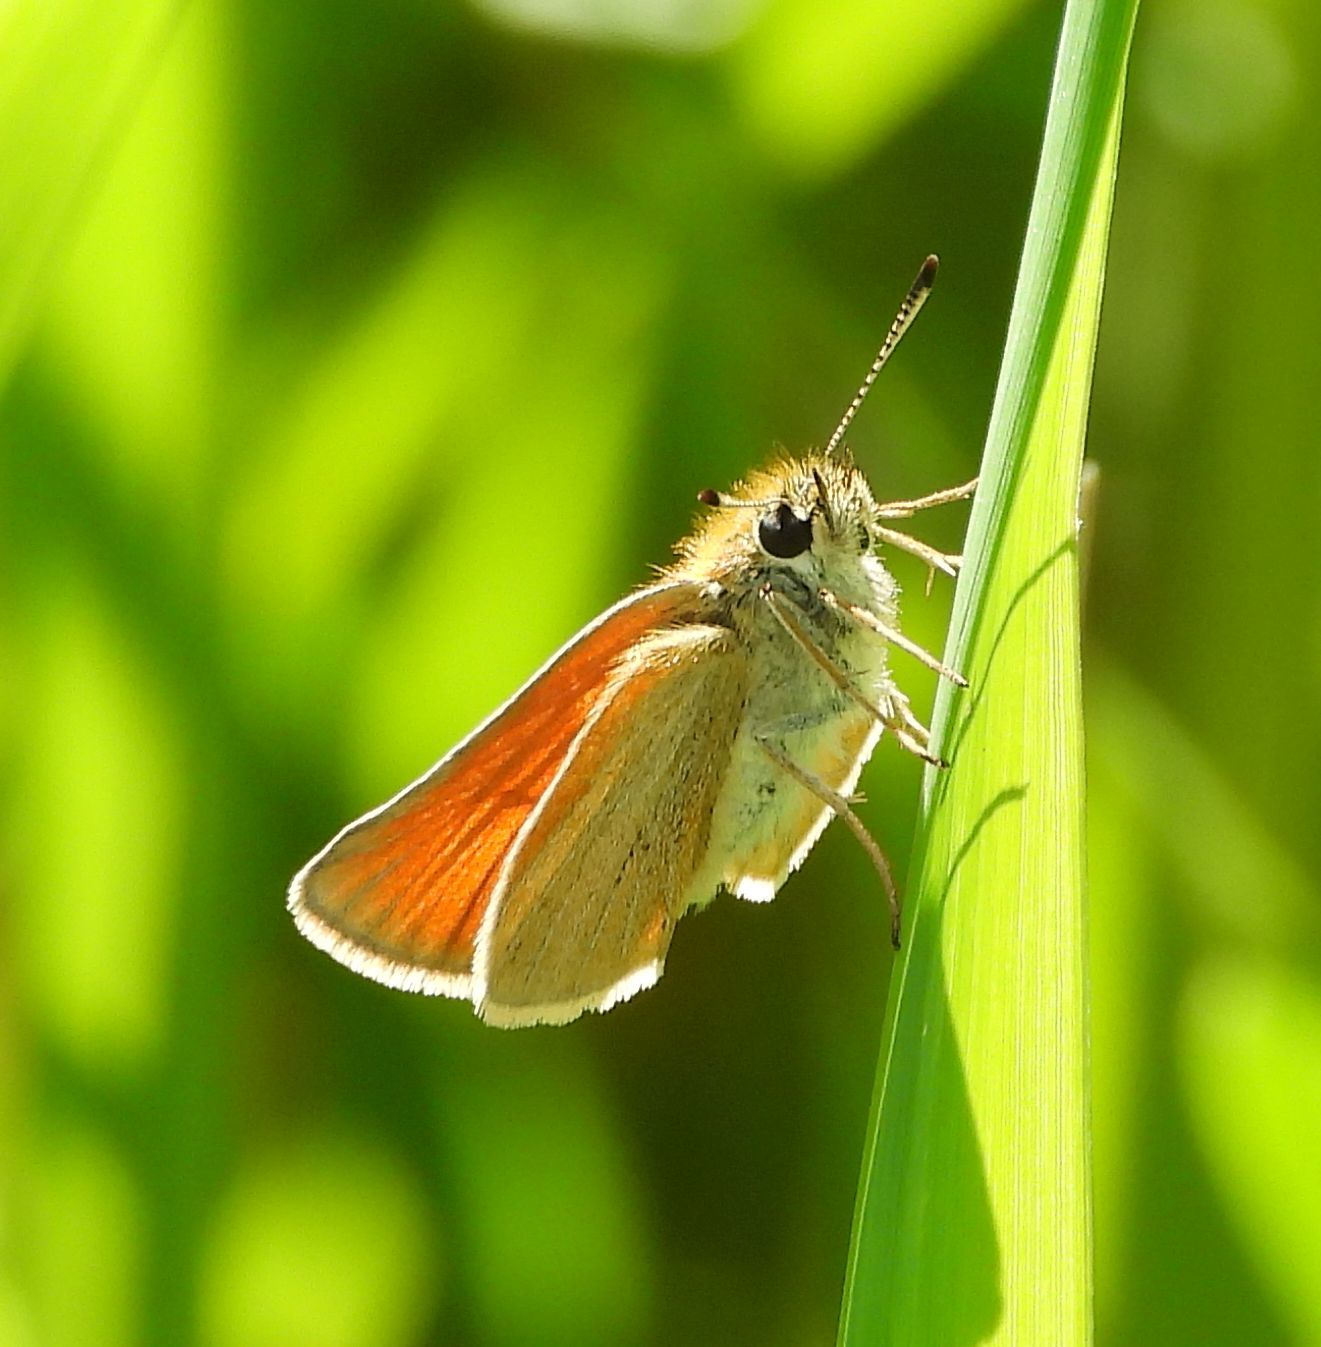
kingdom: Animalia
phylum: Arthropoda
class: Insecta
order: Lepidoptera
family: Hesperiidae
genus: Thymelicus
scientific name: Thymelicus lineola
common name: Essex skipper
